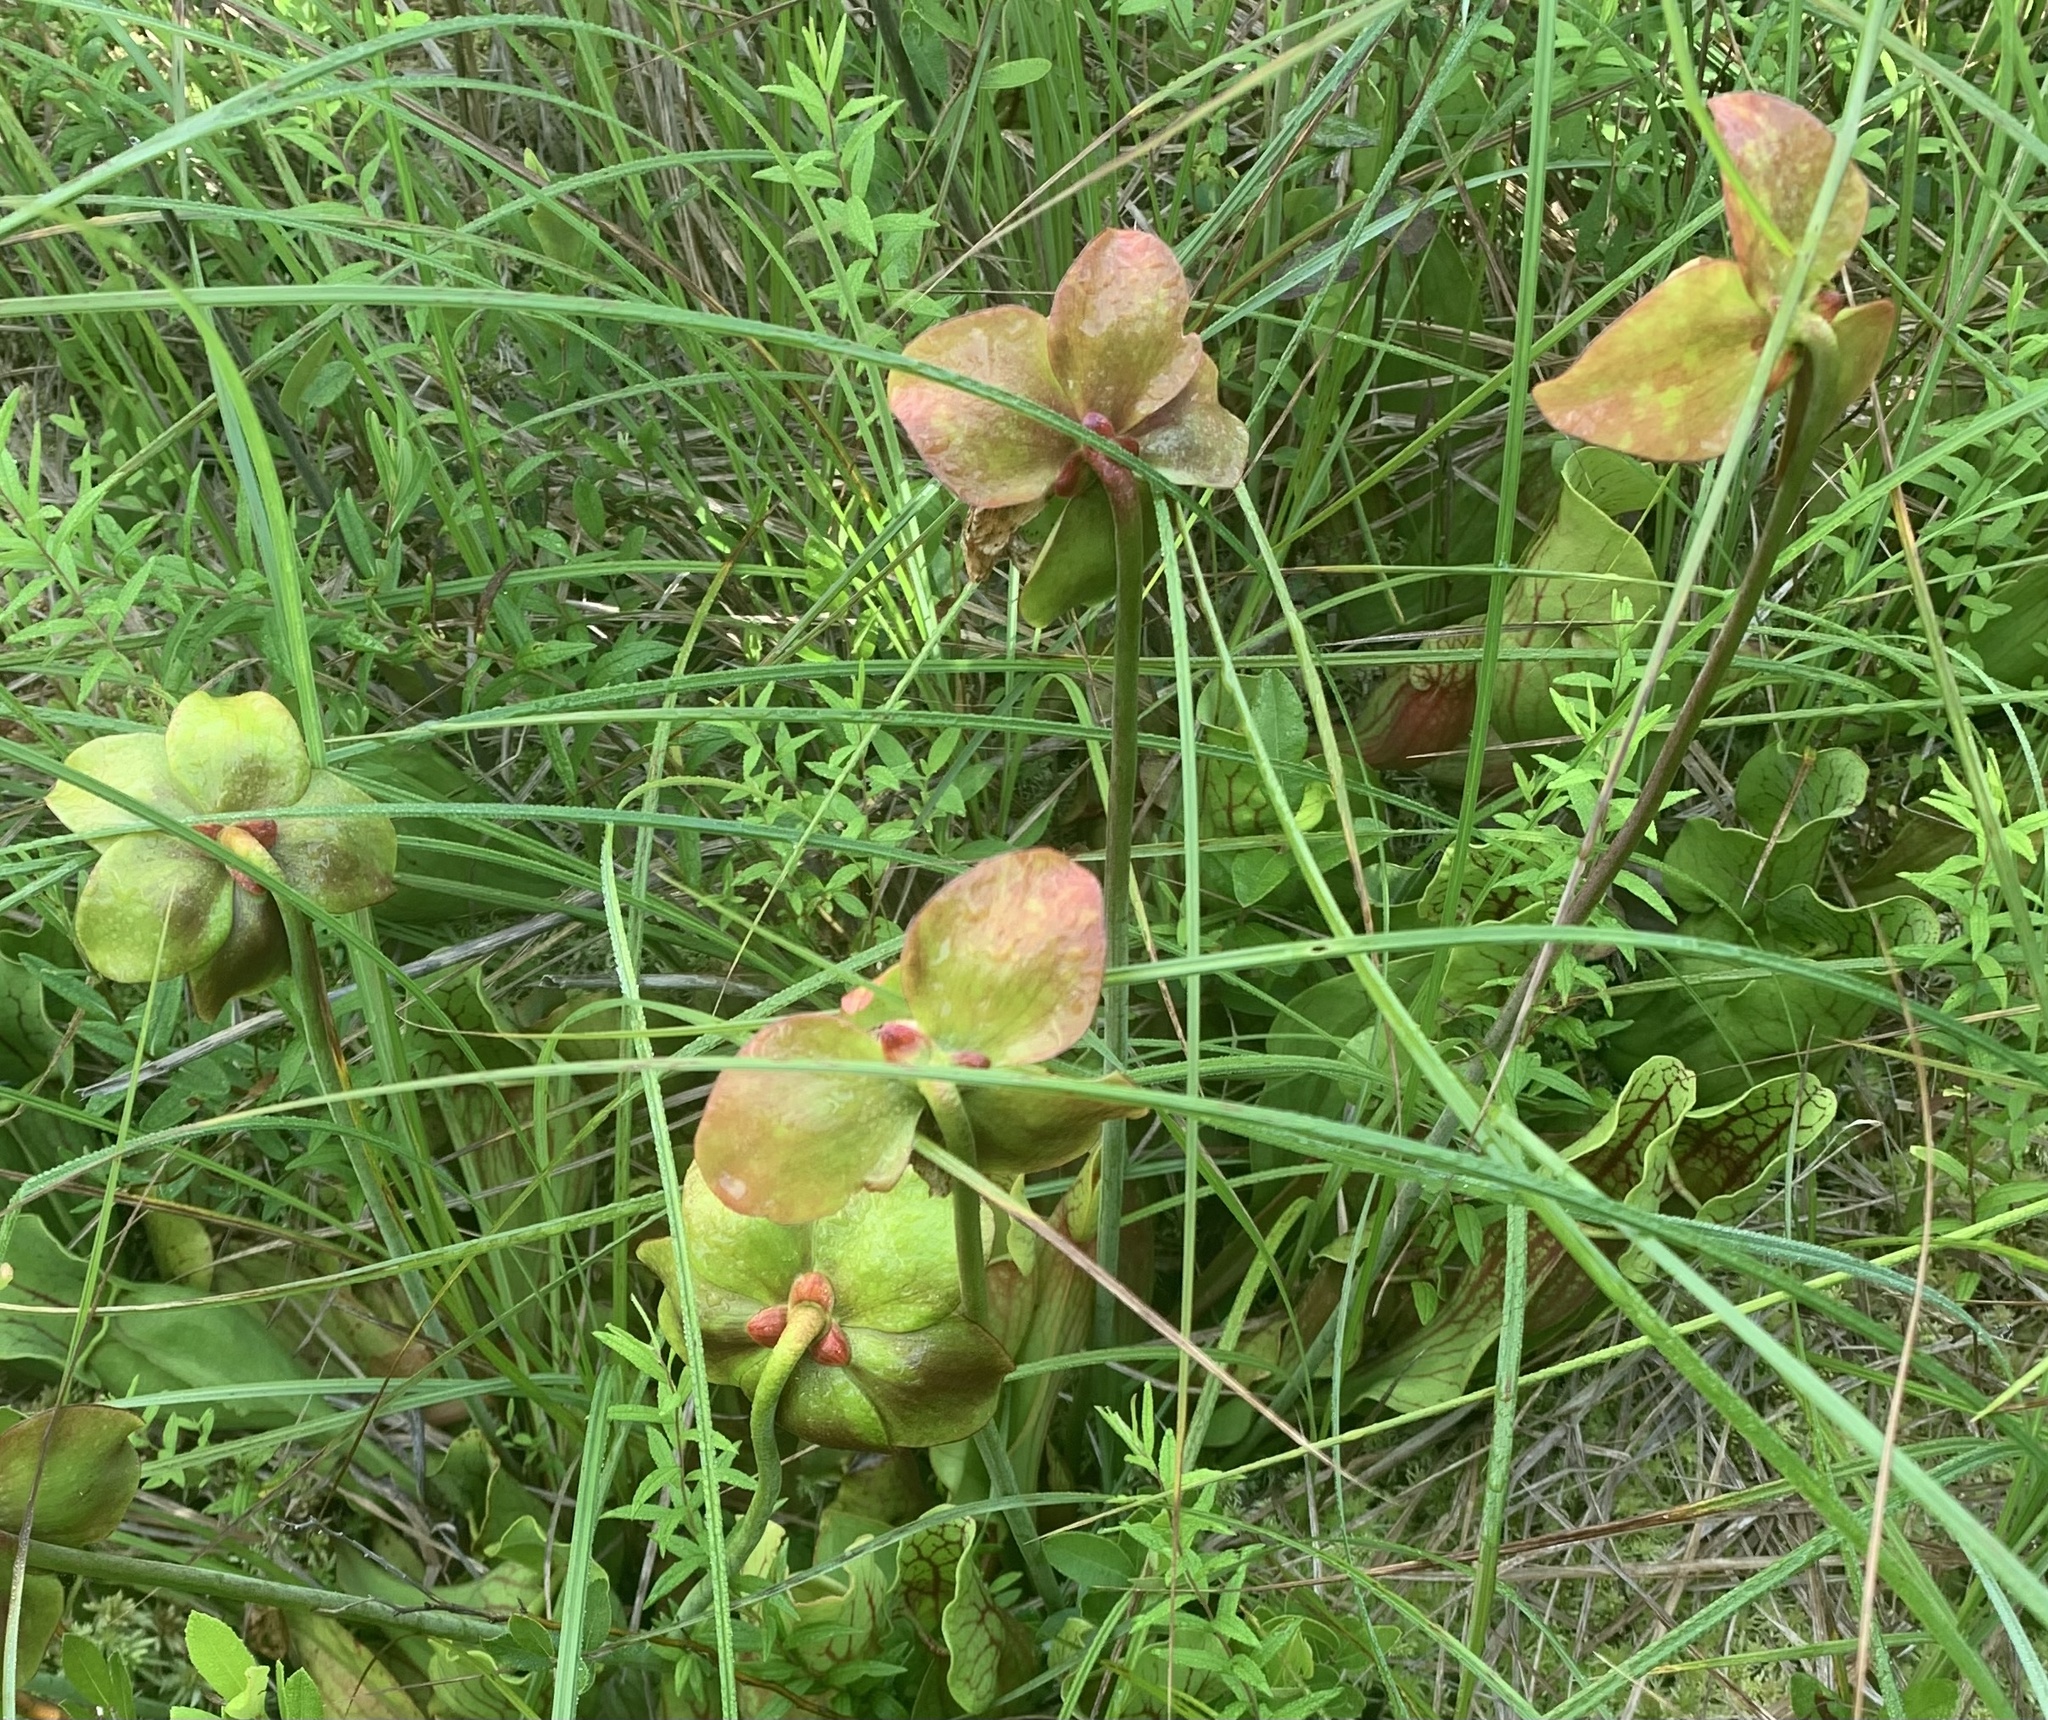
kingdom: Plantae
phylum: Tracheophyta
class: Magnoliopsida
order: Ericales
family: Sarraceniaceae
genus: Sarracenia
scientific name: Sarracenia purpurea
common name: Pitcherplant
